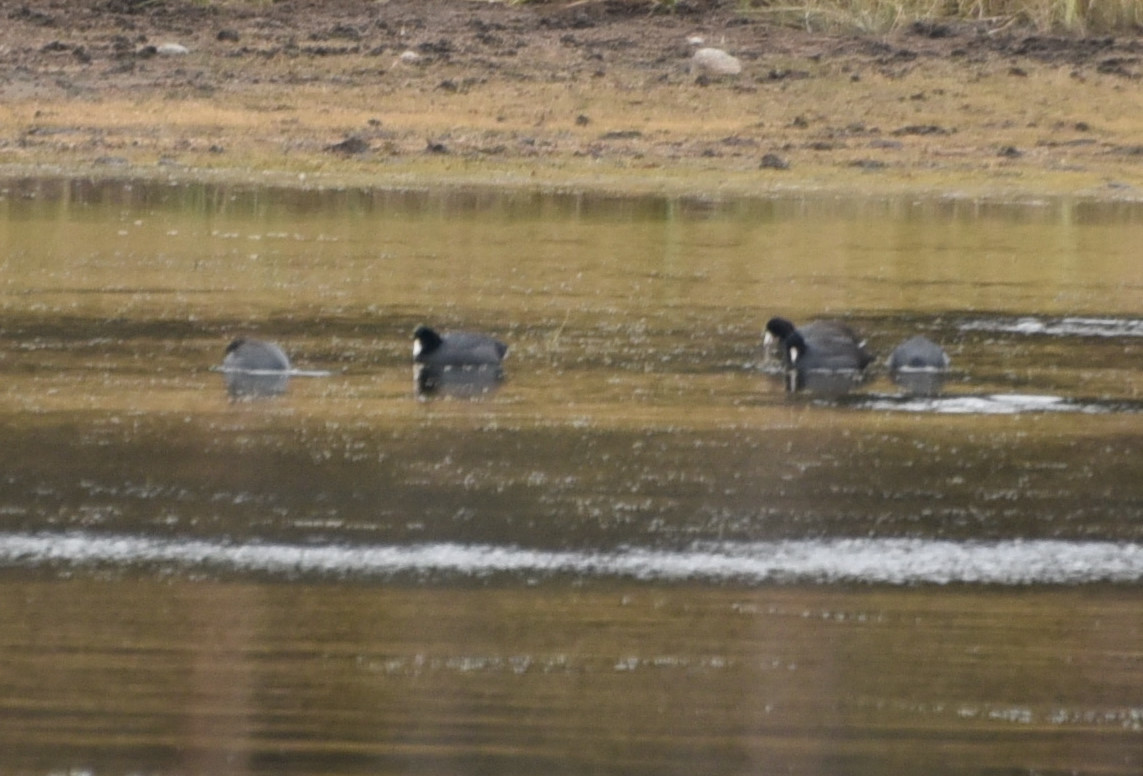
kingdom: Animalia
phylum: Chordata
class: Aves
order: Gruiformes
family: Rallidae
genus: Fulica
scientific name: Fulica americana
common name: American coot
